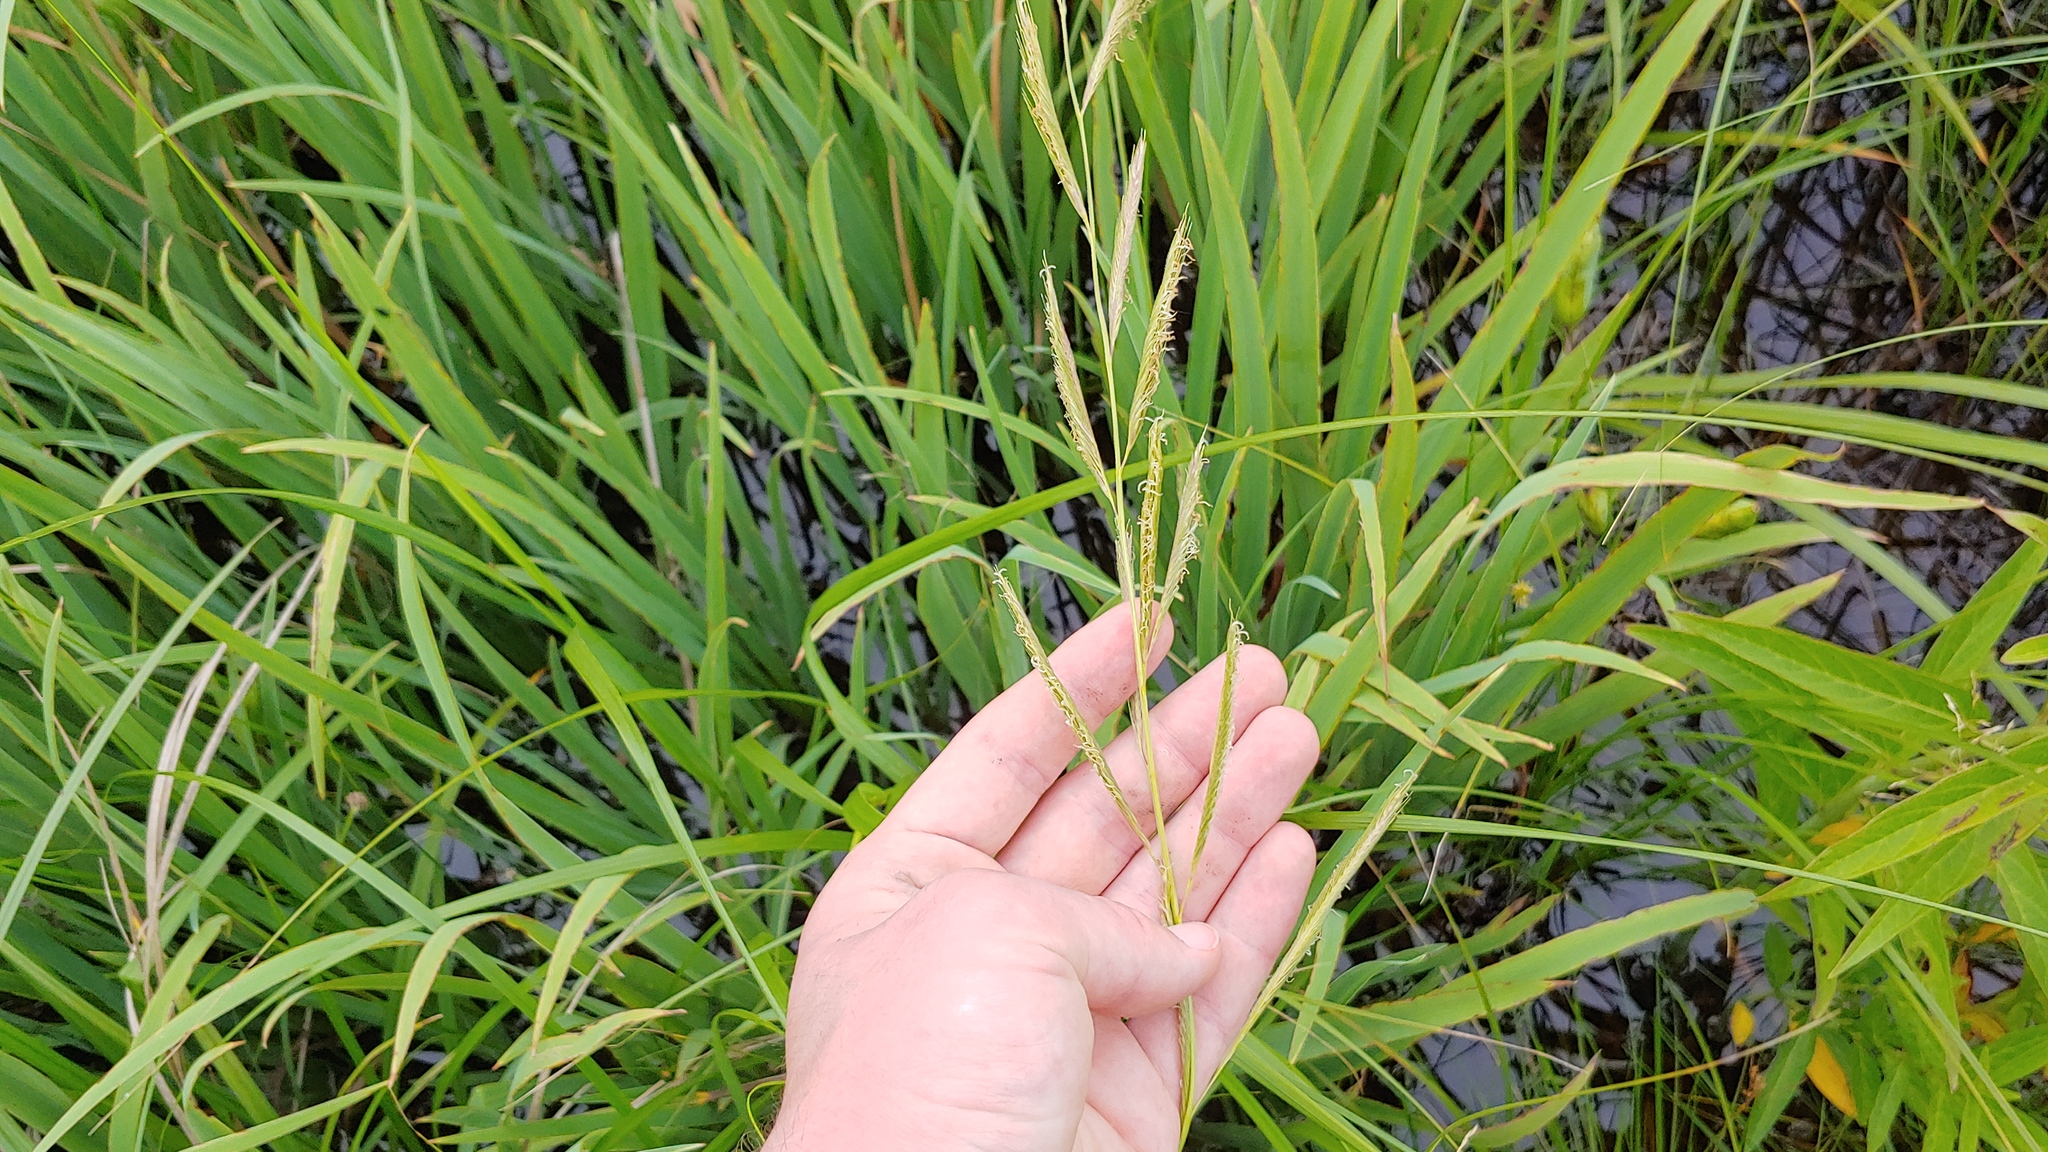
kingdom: Plantae
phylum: Tracheophyta
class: Liliopsida
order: Poales
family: Poaceae
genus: Sporobolus
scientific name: Sporobolus michauxianus
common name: Freshwater cordgrass
